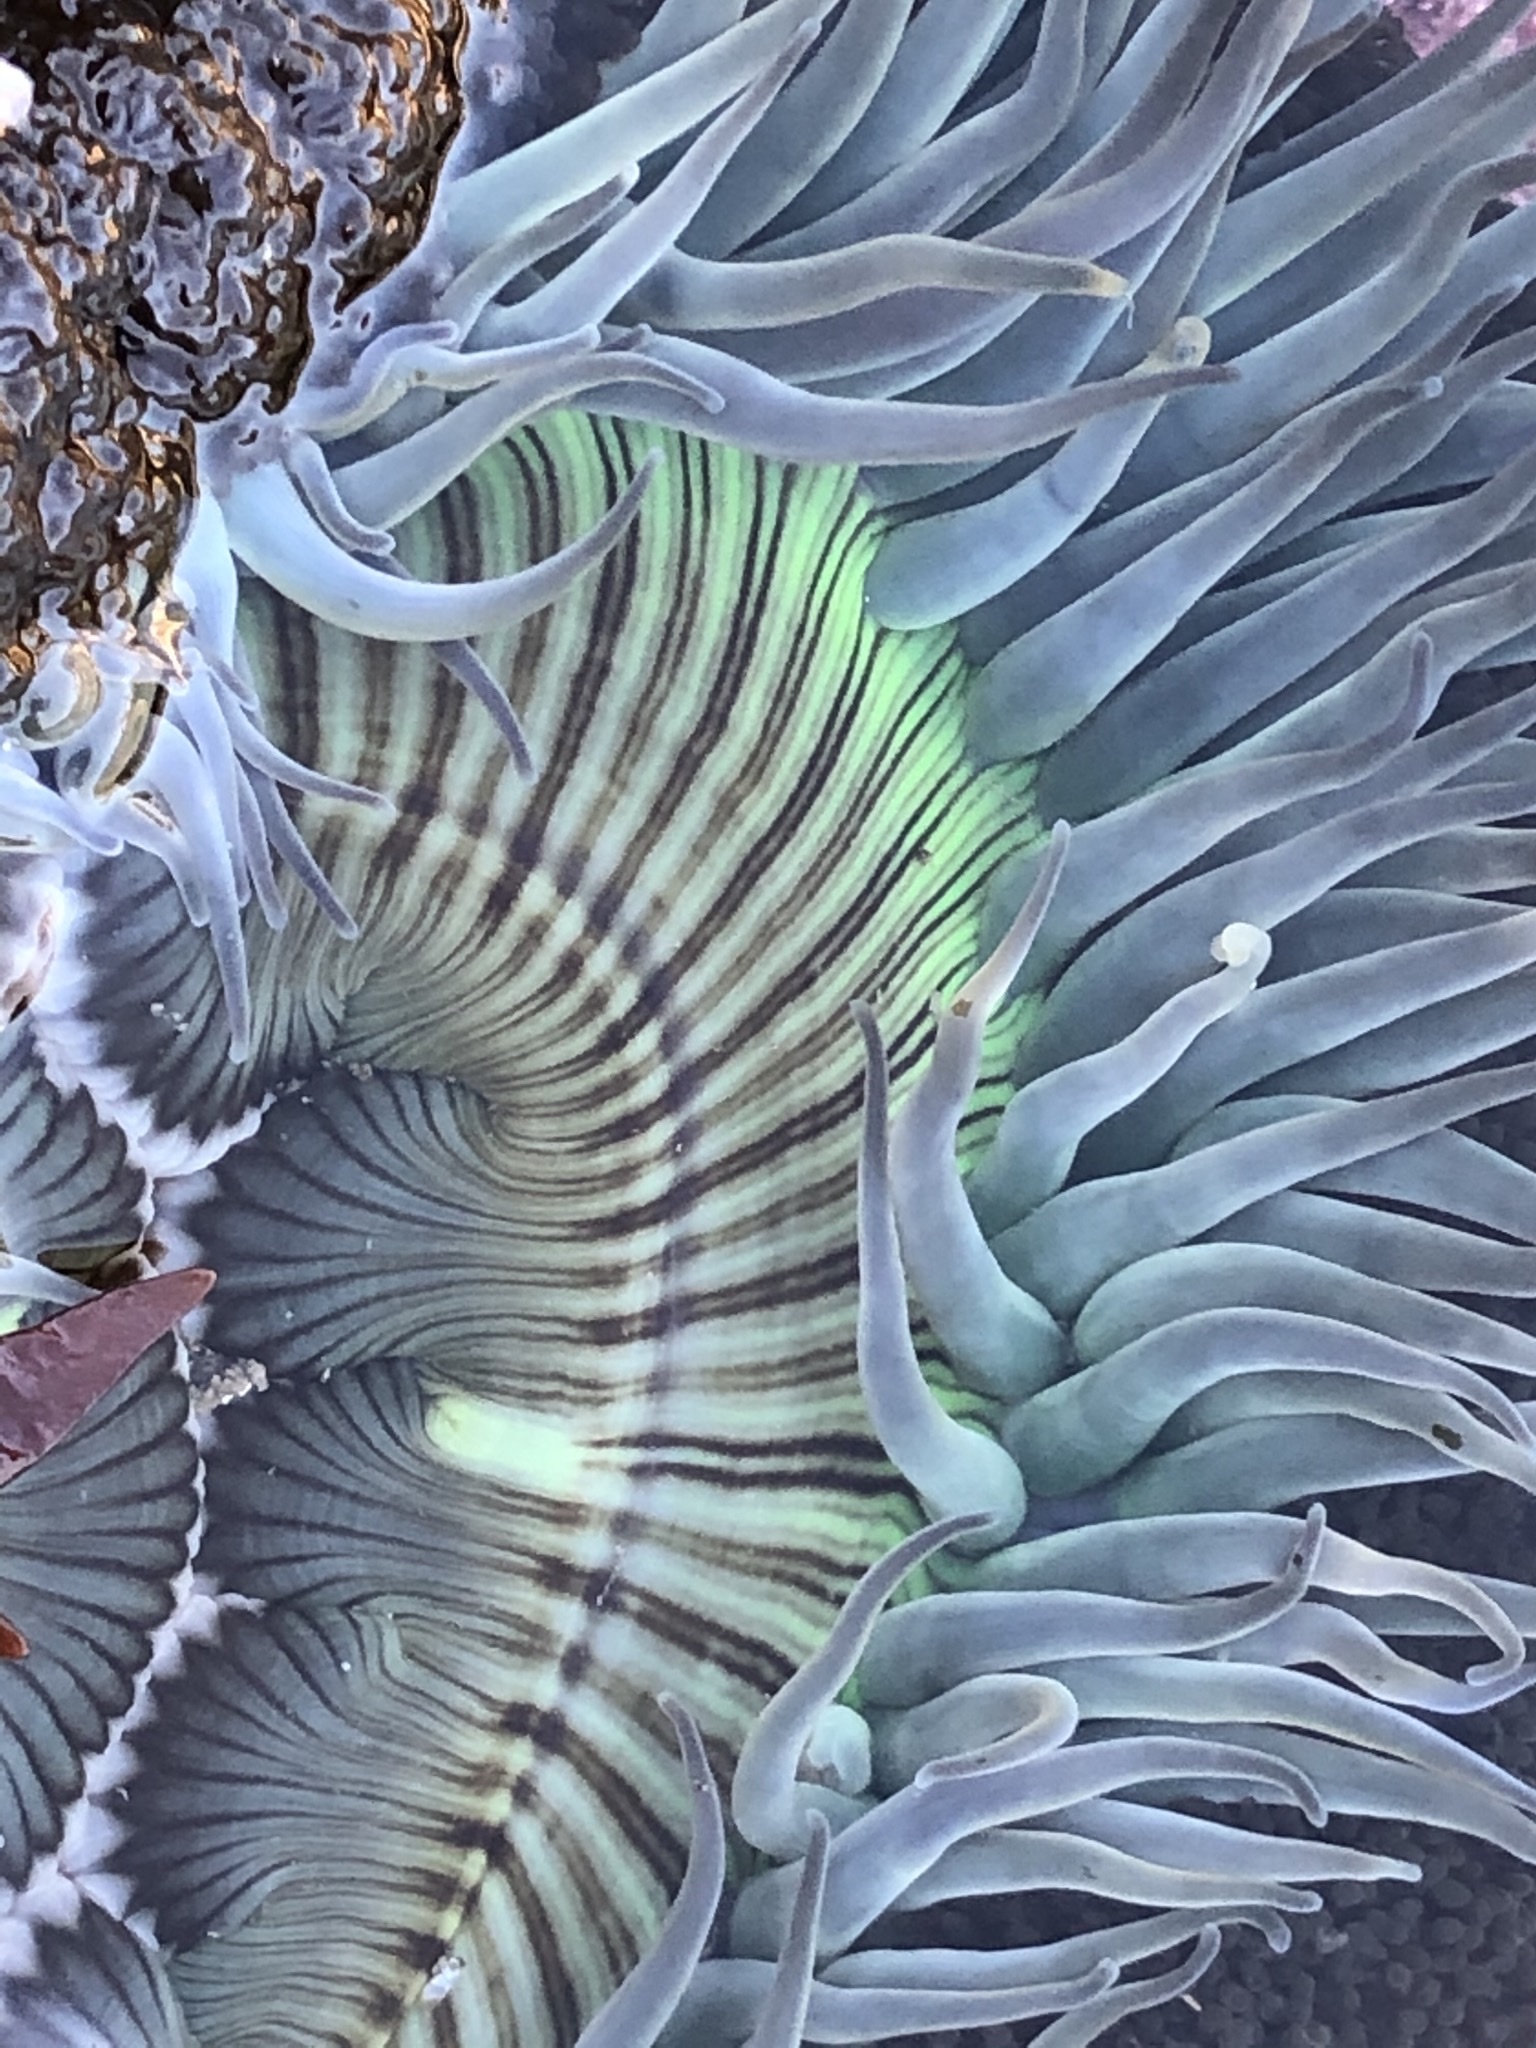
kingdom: Animalia
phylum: Cnidaria
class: Anthozoa
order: Actiniaria
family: Actiniidae
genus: Anthopleura
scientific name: Anthopleura sola
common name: Sun anemone
